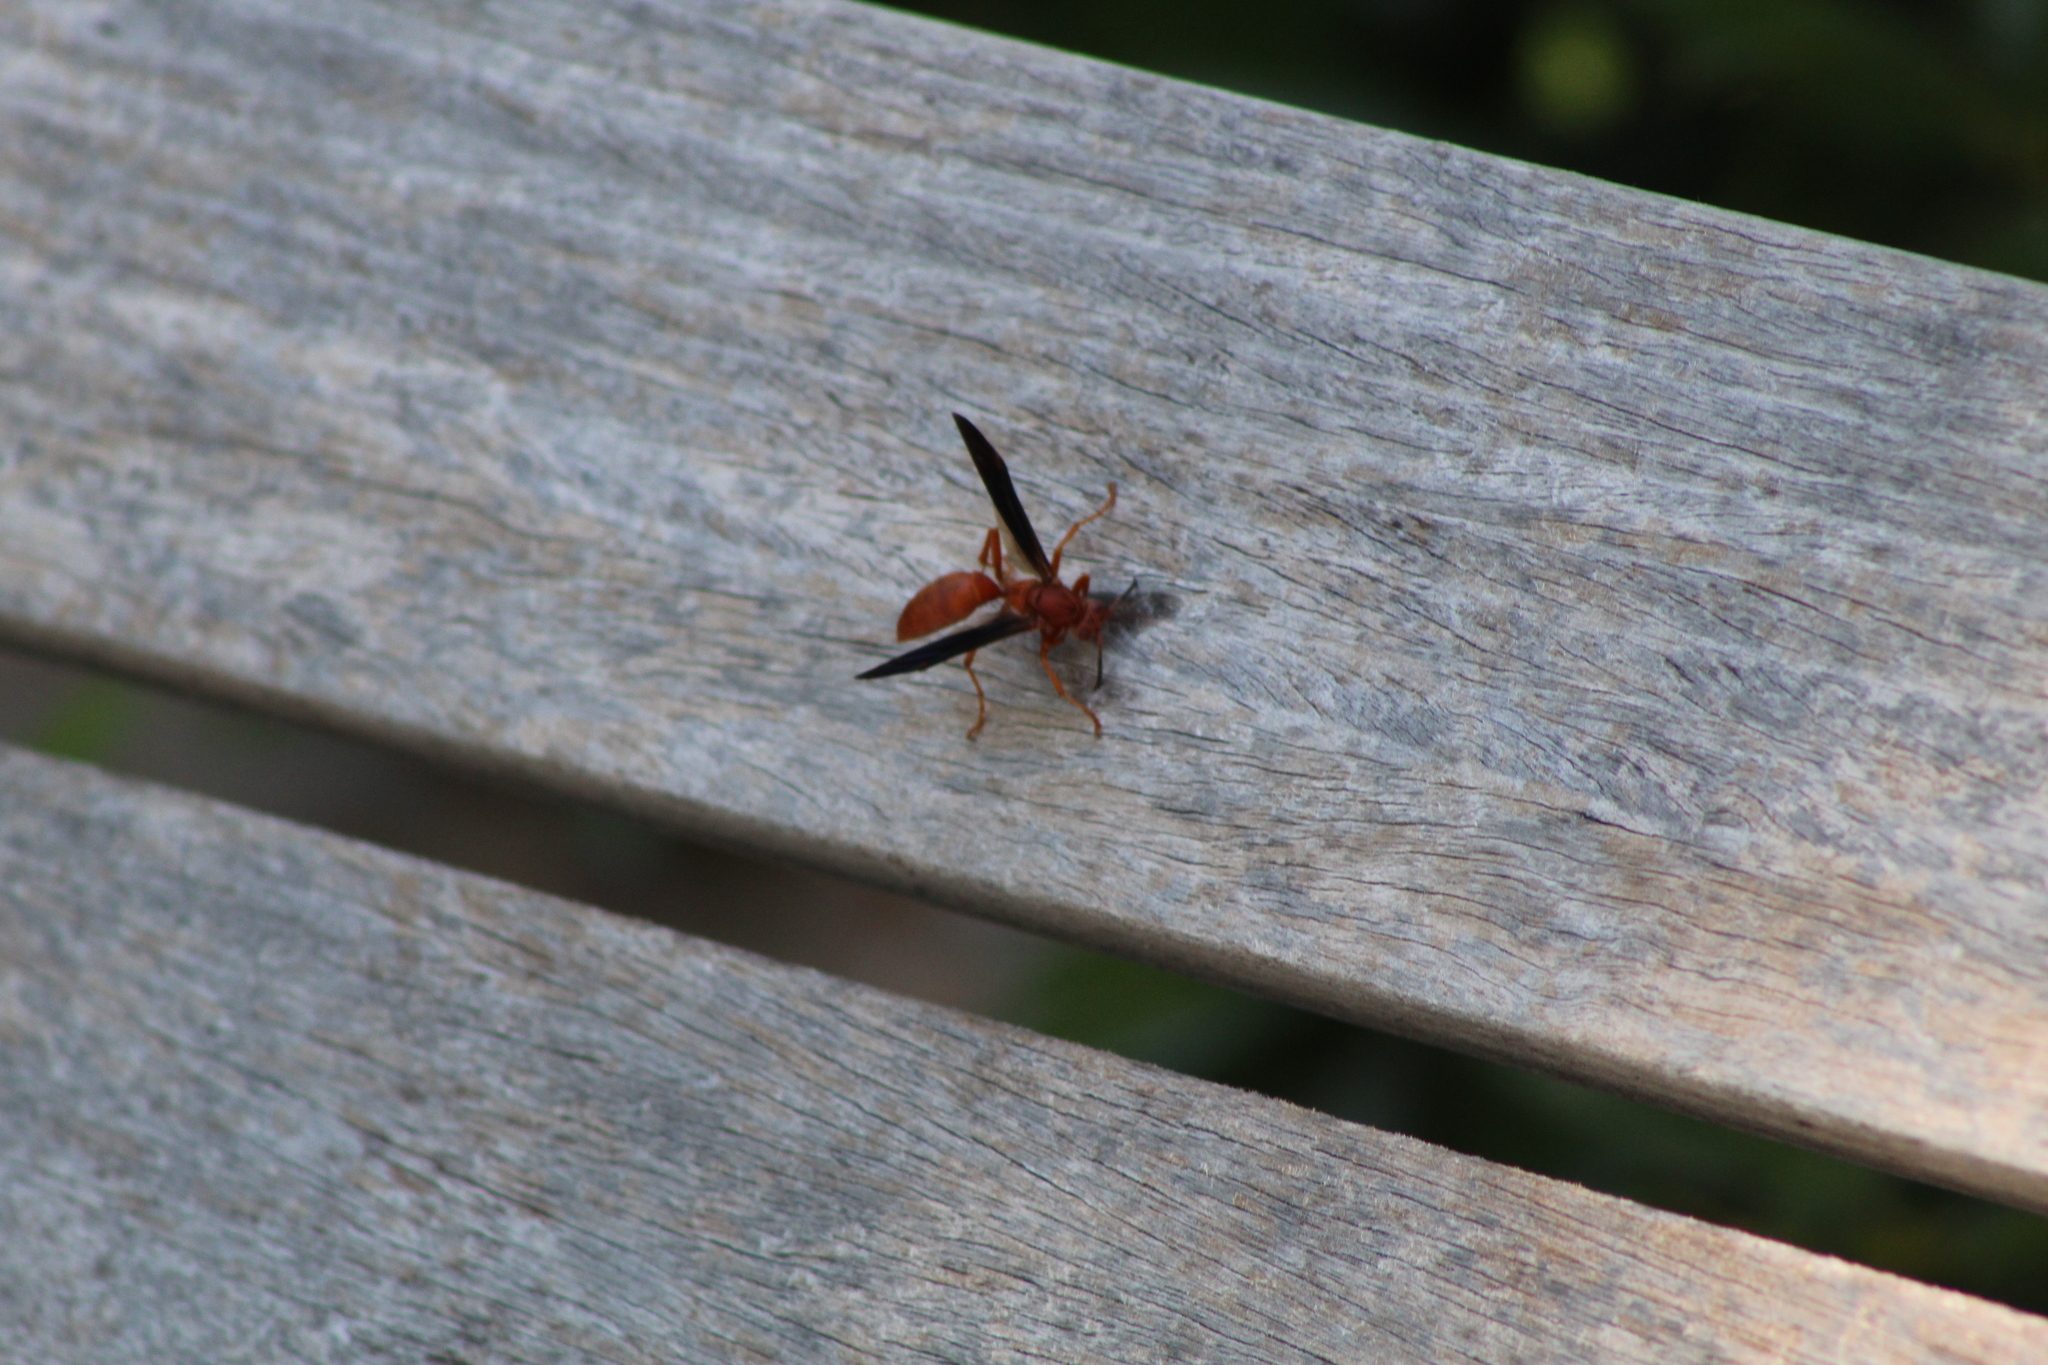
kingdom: Animalia
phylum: Arthropoda
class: Insecta
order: Hymenoptera
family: Vespidae
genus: Fuscopolistes
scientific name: Fuscopolistes
